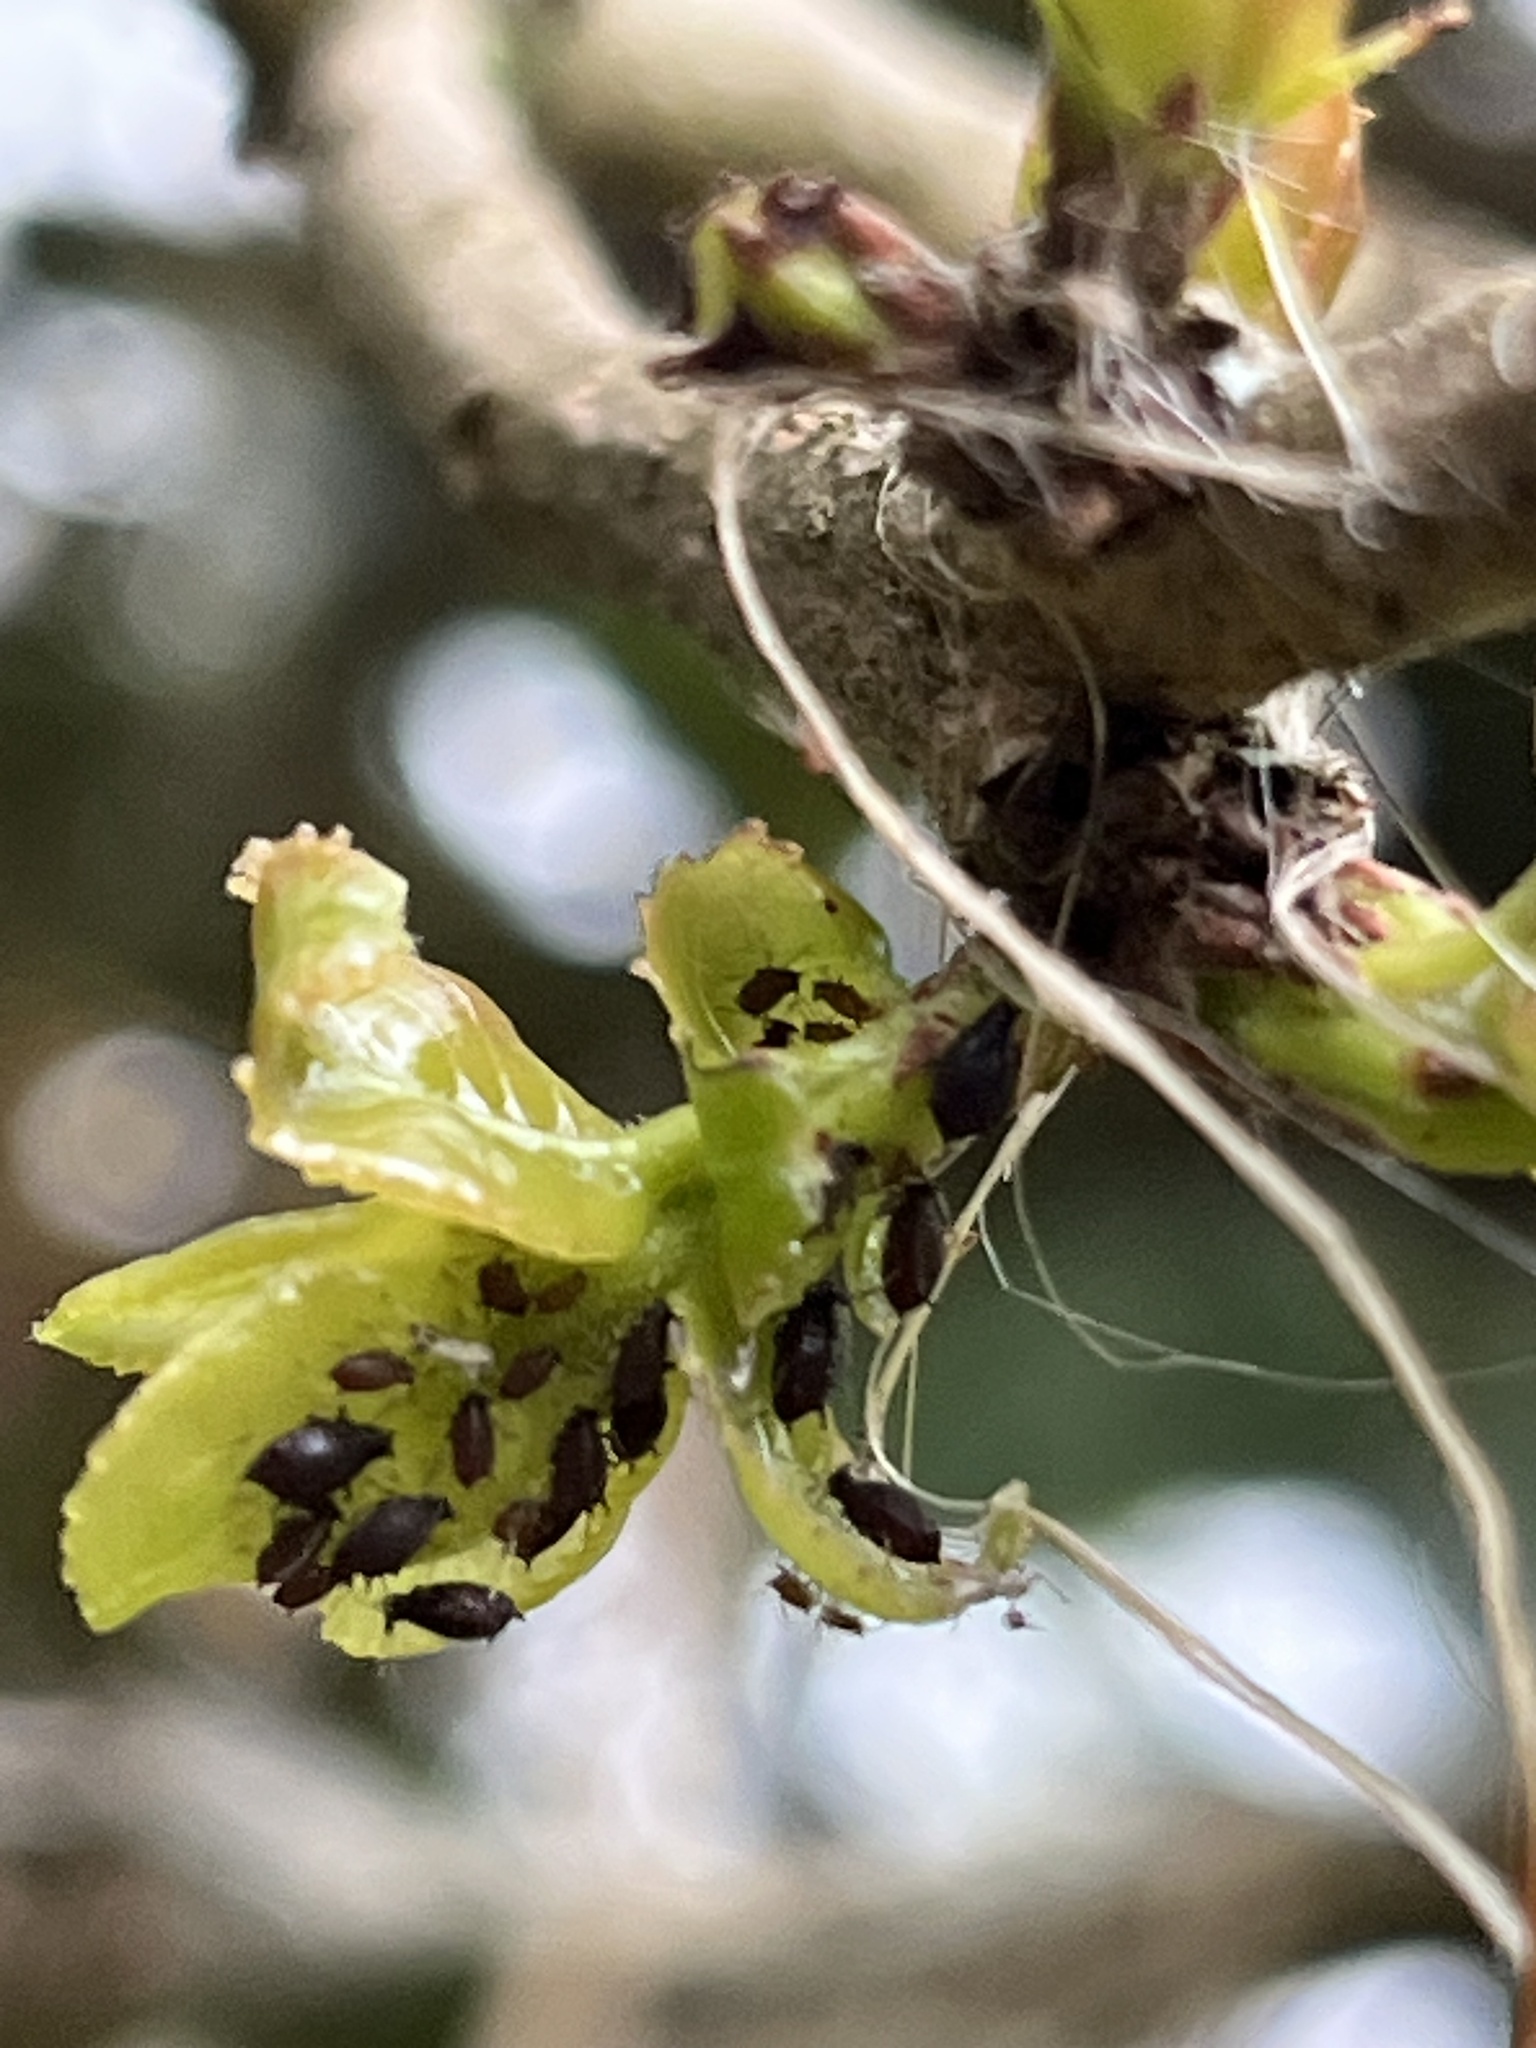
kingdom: Plantae
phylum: Tracheophyta
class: Magnoliopsida
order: Malpighiales
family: Salicaceae
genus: Xylosma
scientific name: Xylosma spiculifera
